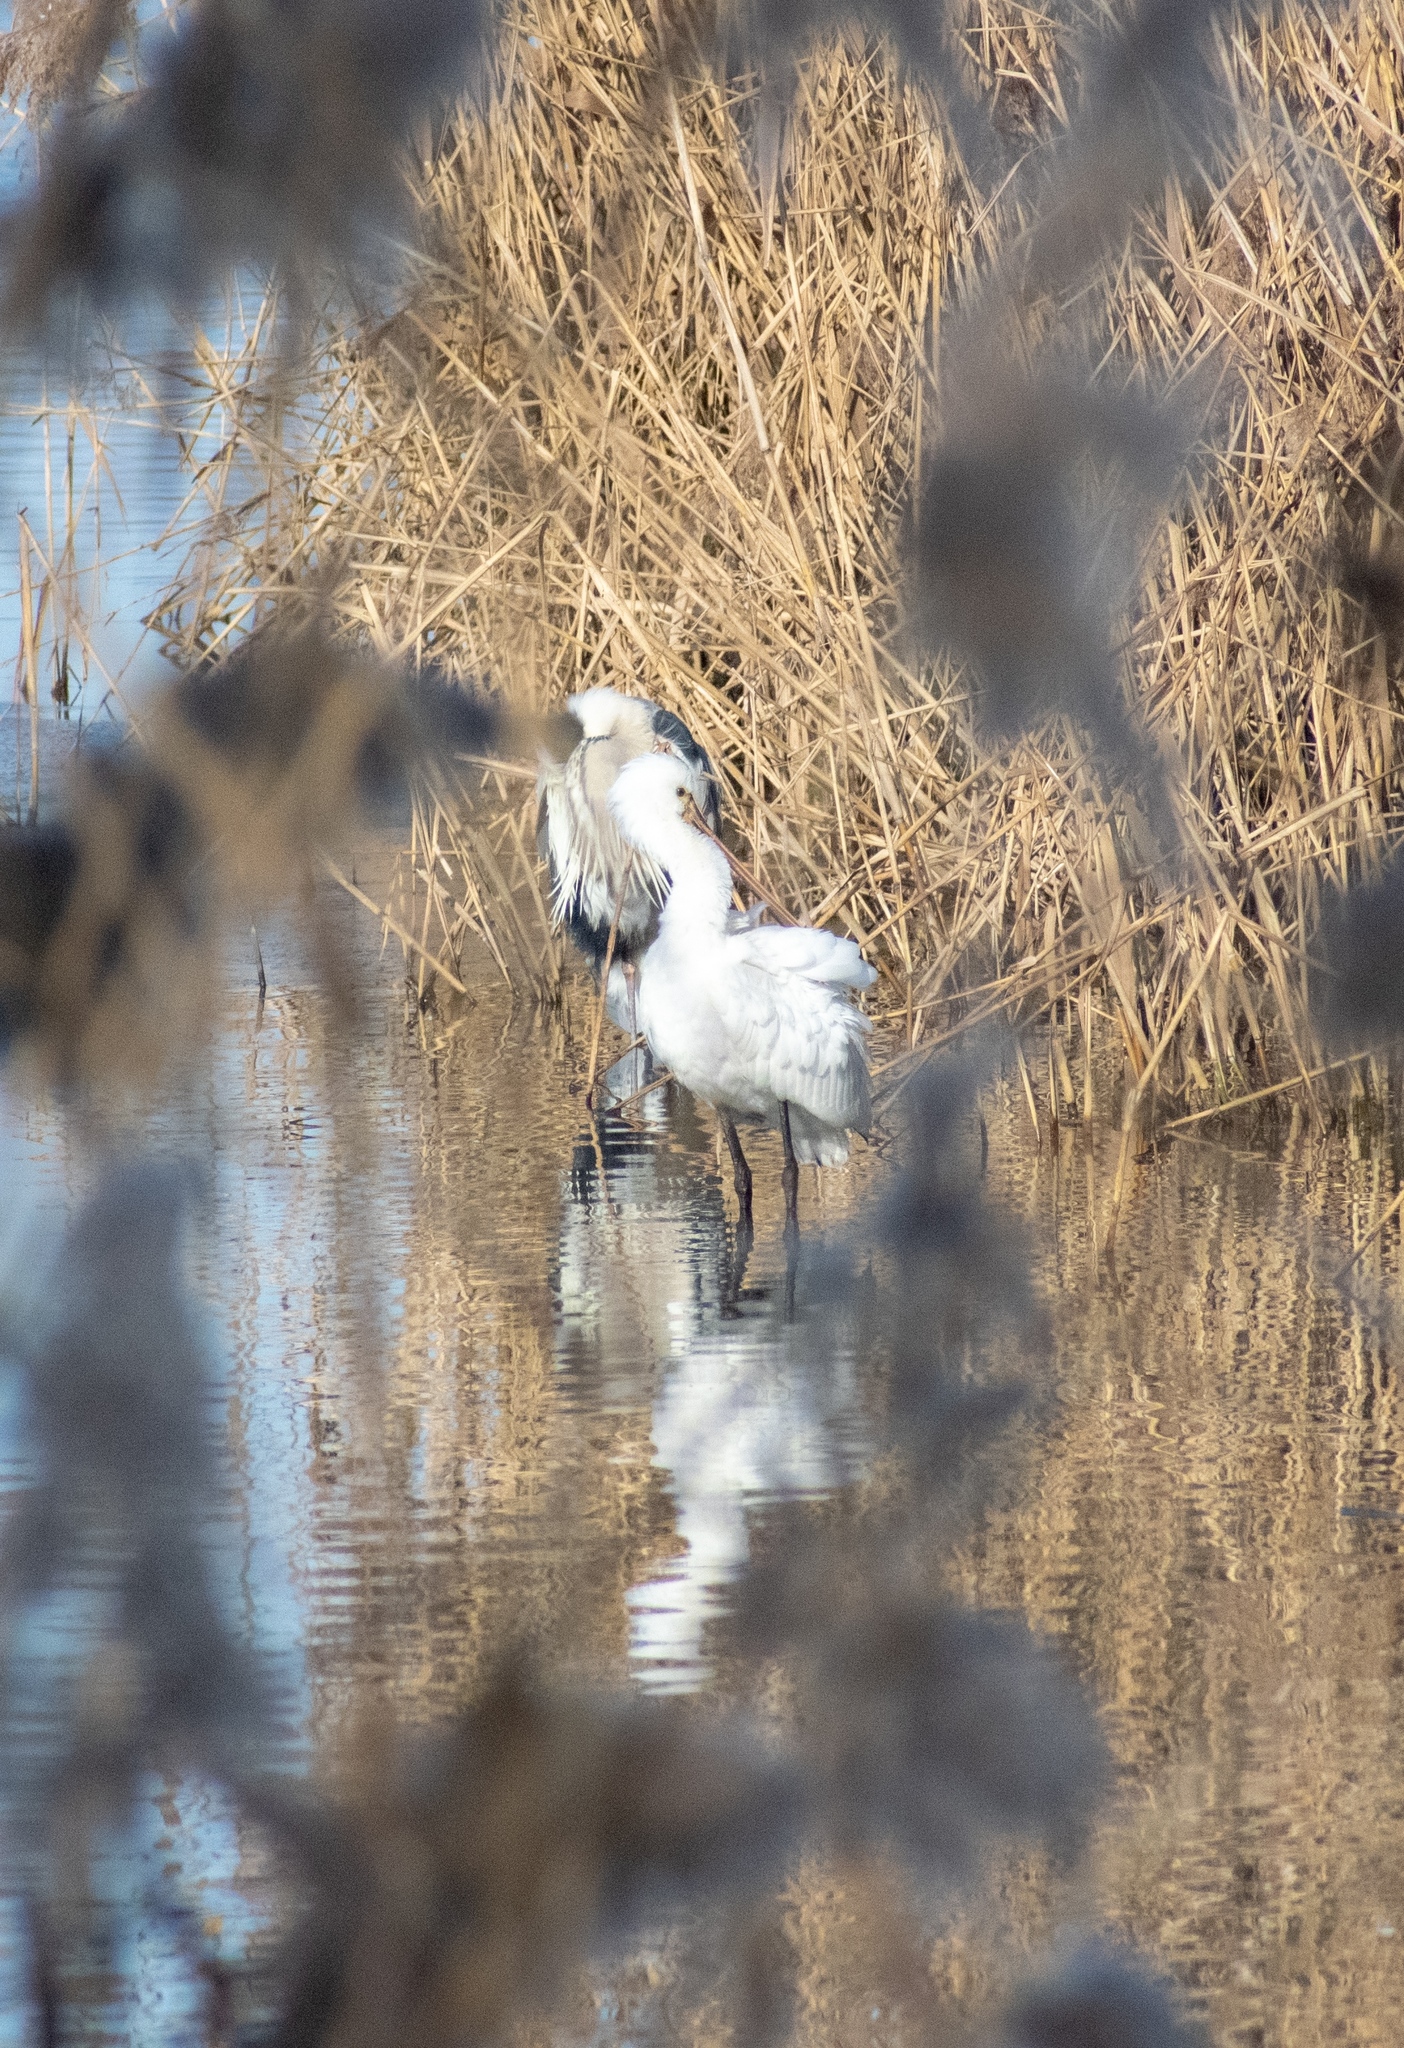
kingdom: Animalia
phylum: Chordata
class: Aves
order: Pelecaniformes
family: Threskiornithidae
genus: Platalea
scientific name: Platalea leucorodia
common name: Eurasian spoonbill
